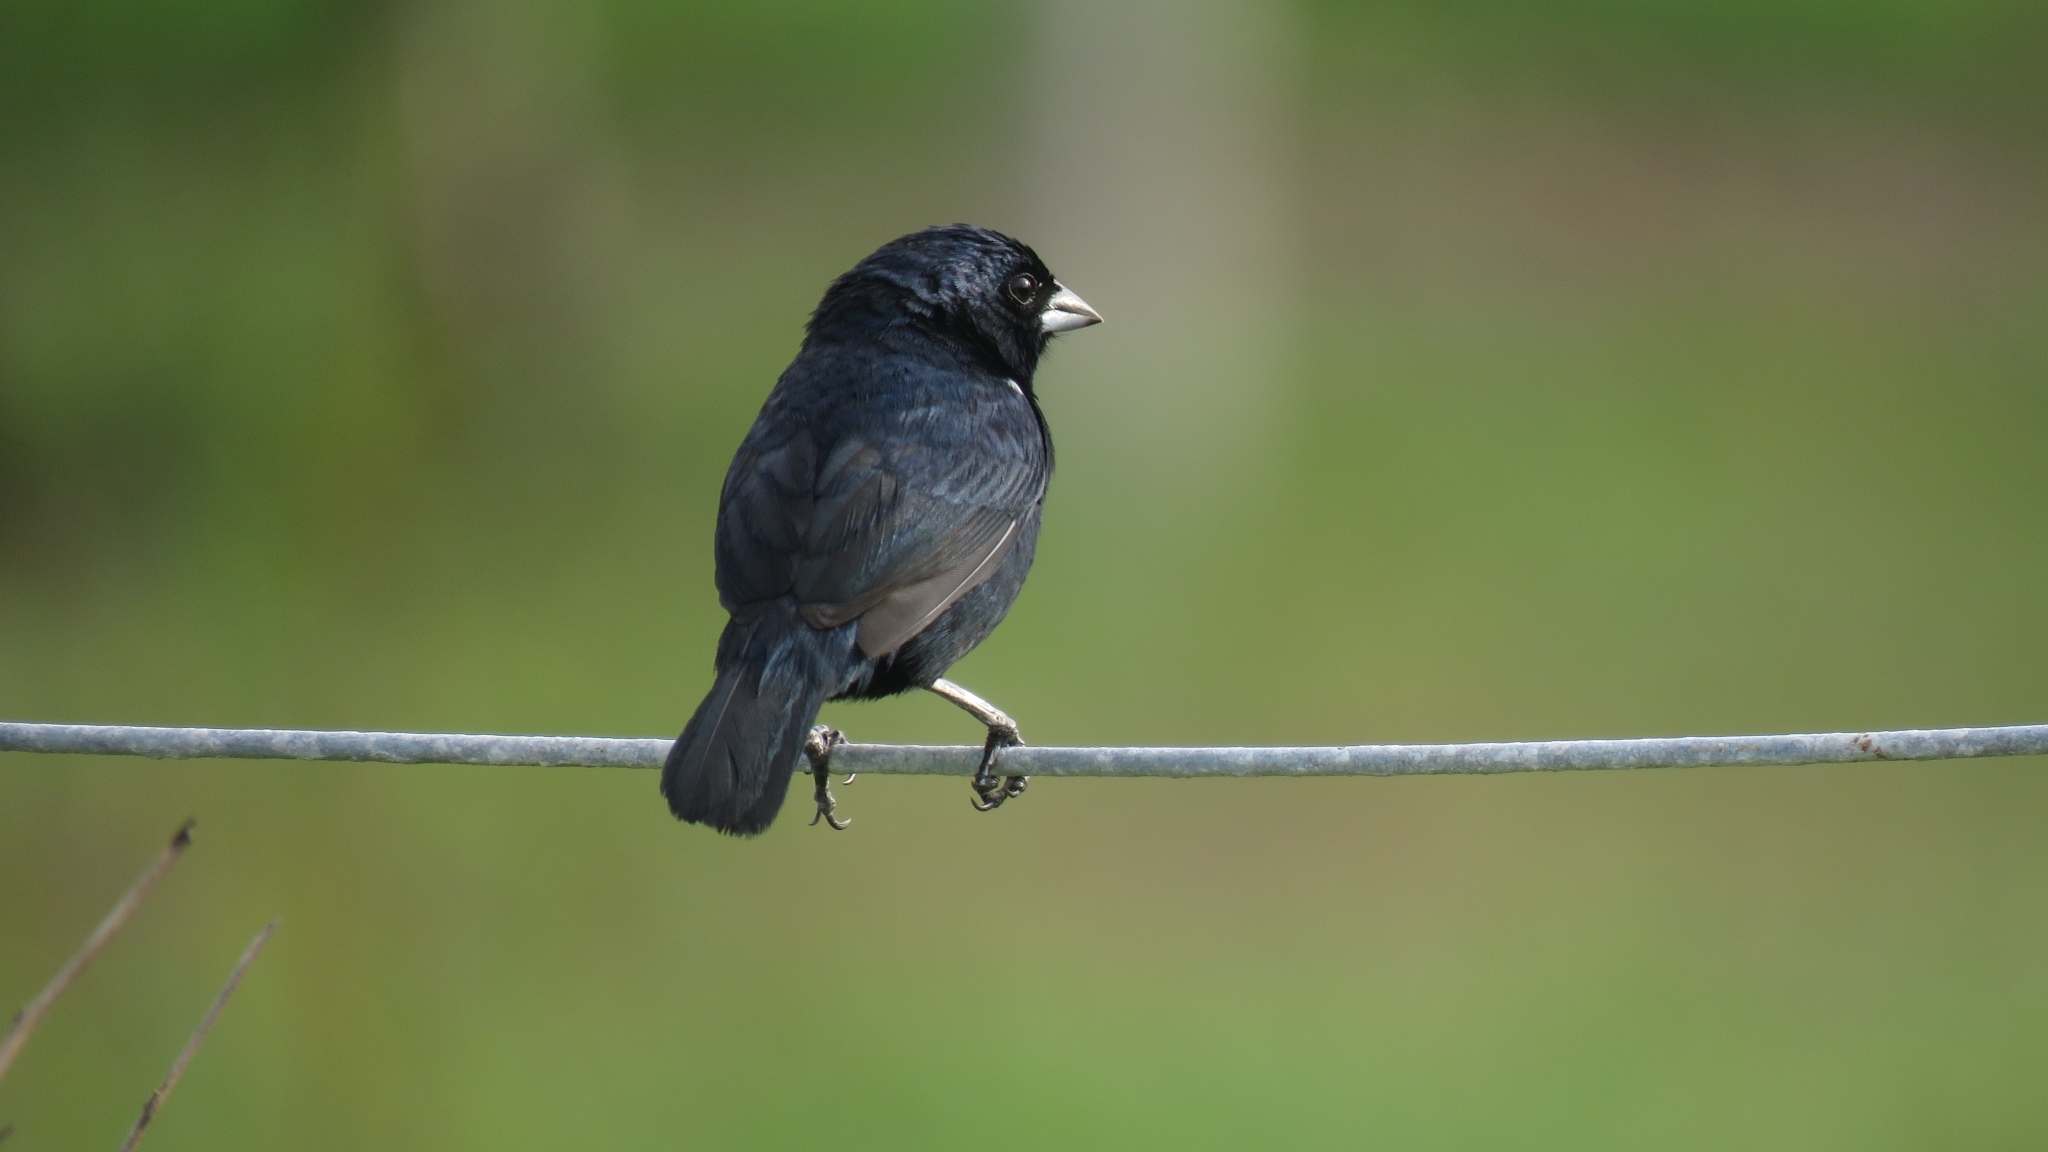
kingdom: Animalia
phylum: Chordata
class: Aves
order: Passeriformes
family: Thraupidae
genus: Volatinia
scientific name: Volatinia jacarina
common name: Blue-black grassquit
